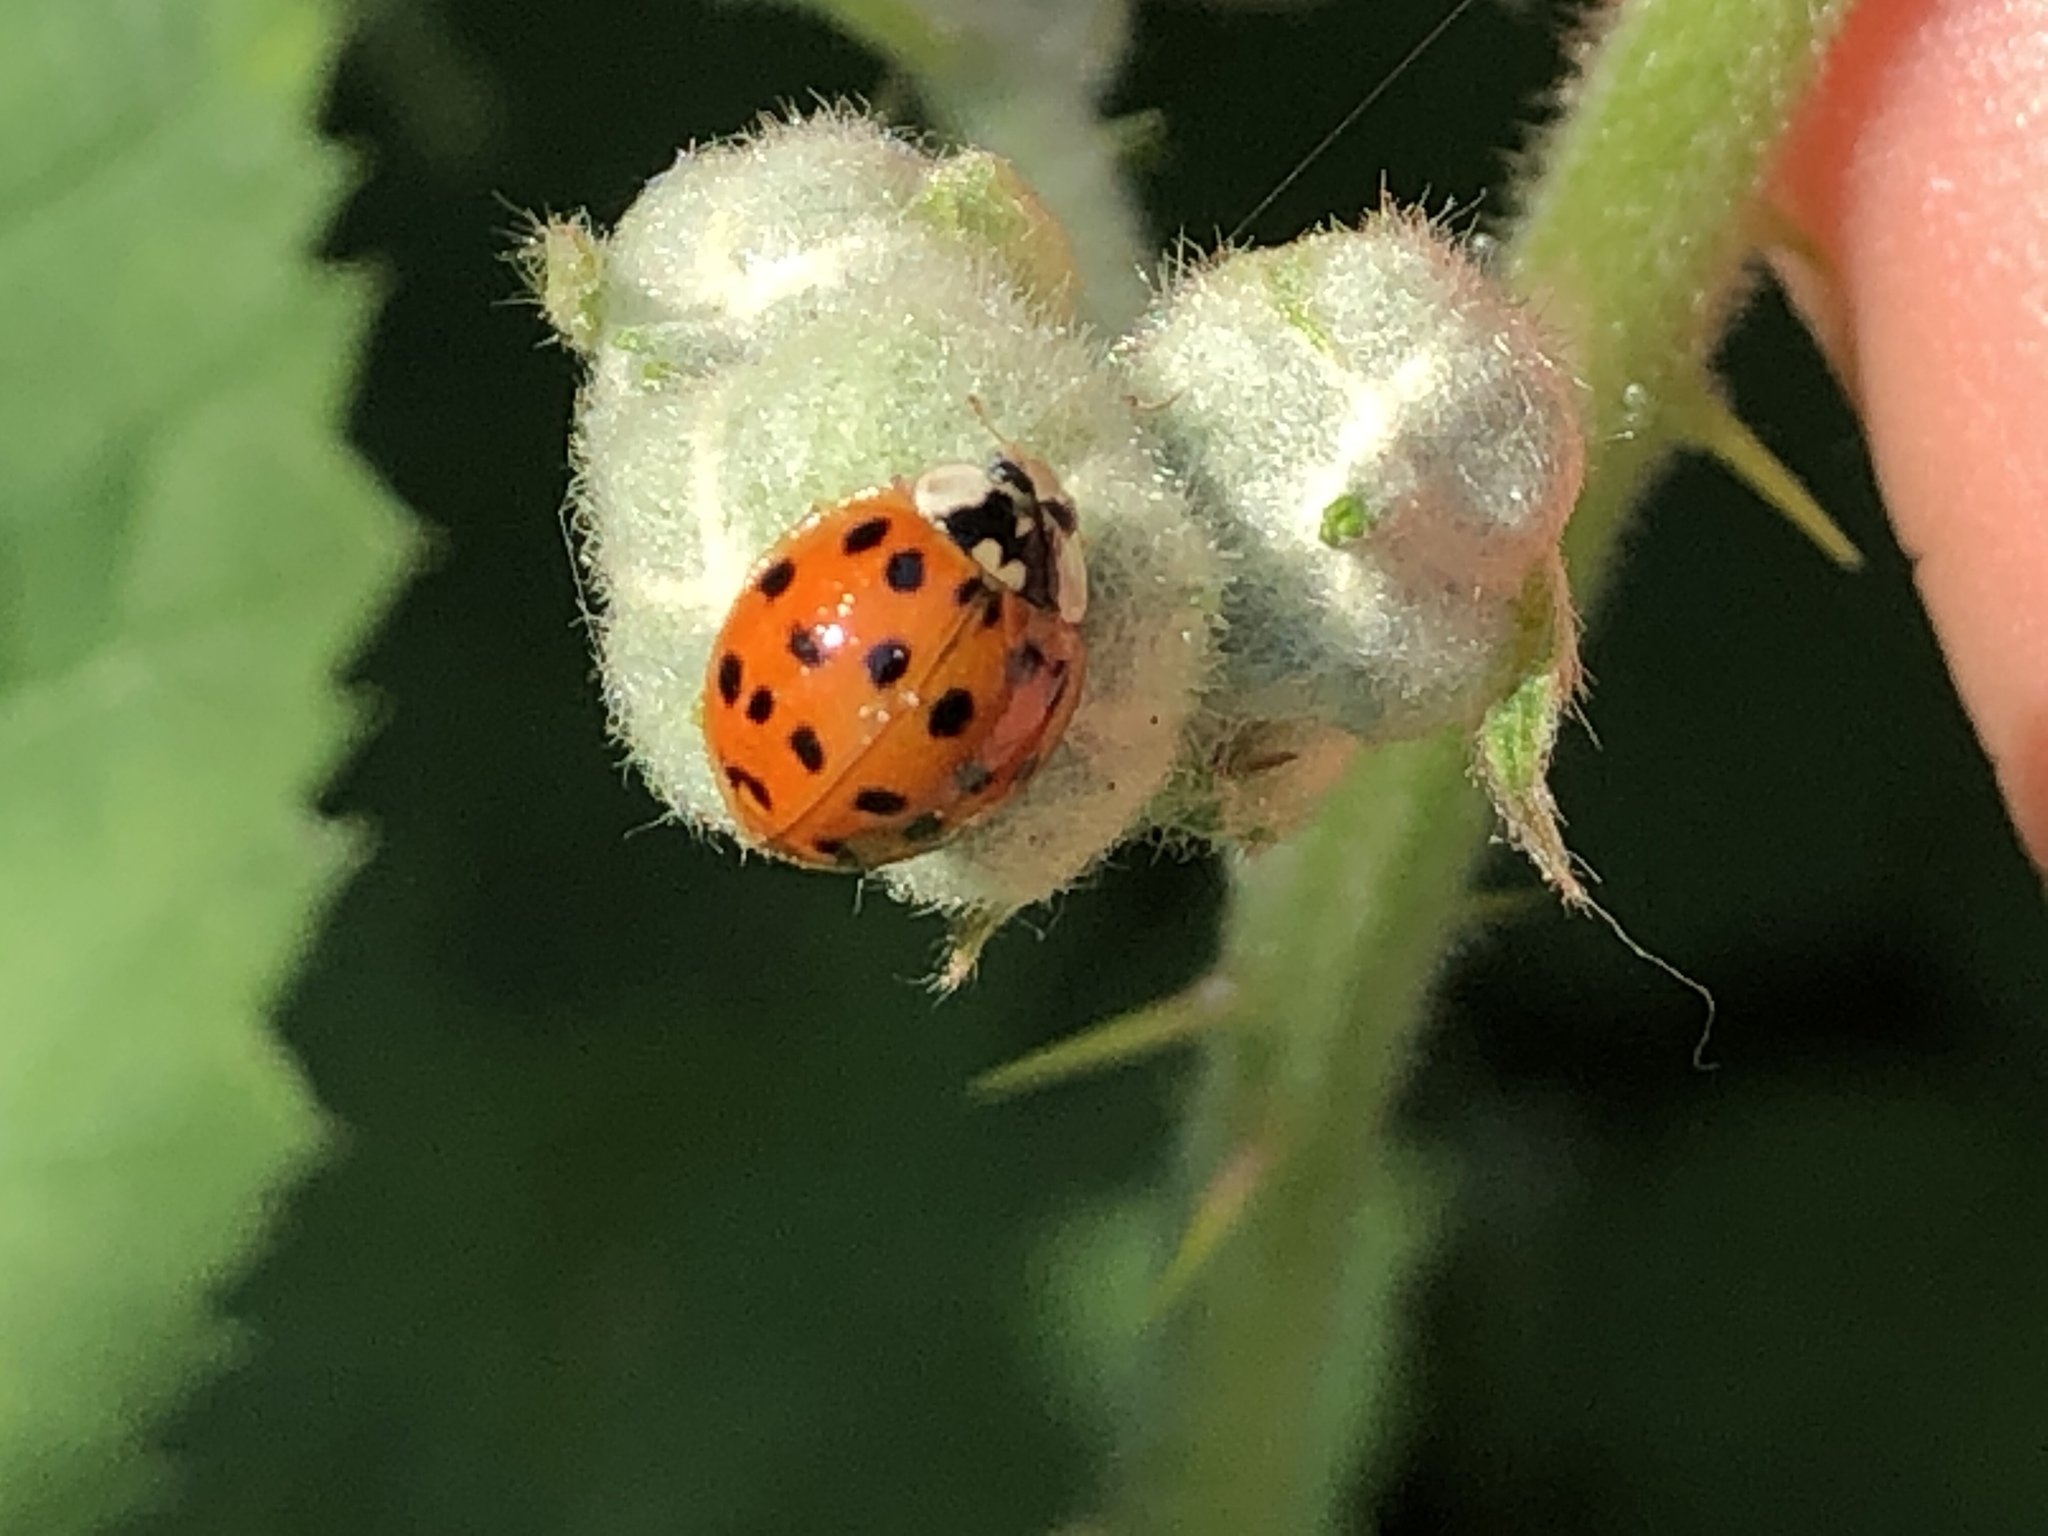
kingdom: Animalia
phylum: Arthropoda
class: Insecta
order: Coleoptera
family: Coccinellidae
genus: Harmonia
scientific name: Harmonia axyridis
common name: Harlequin ladybird
